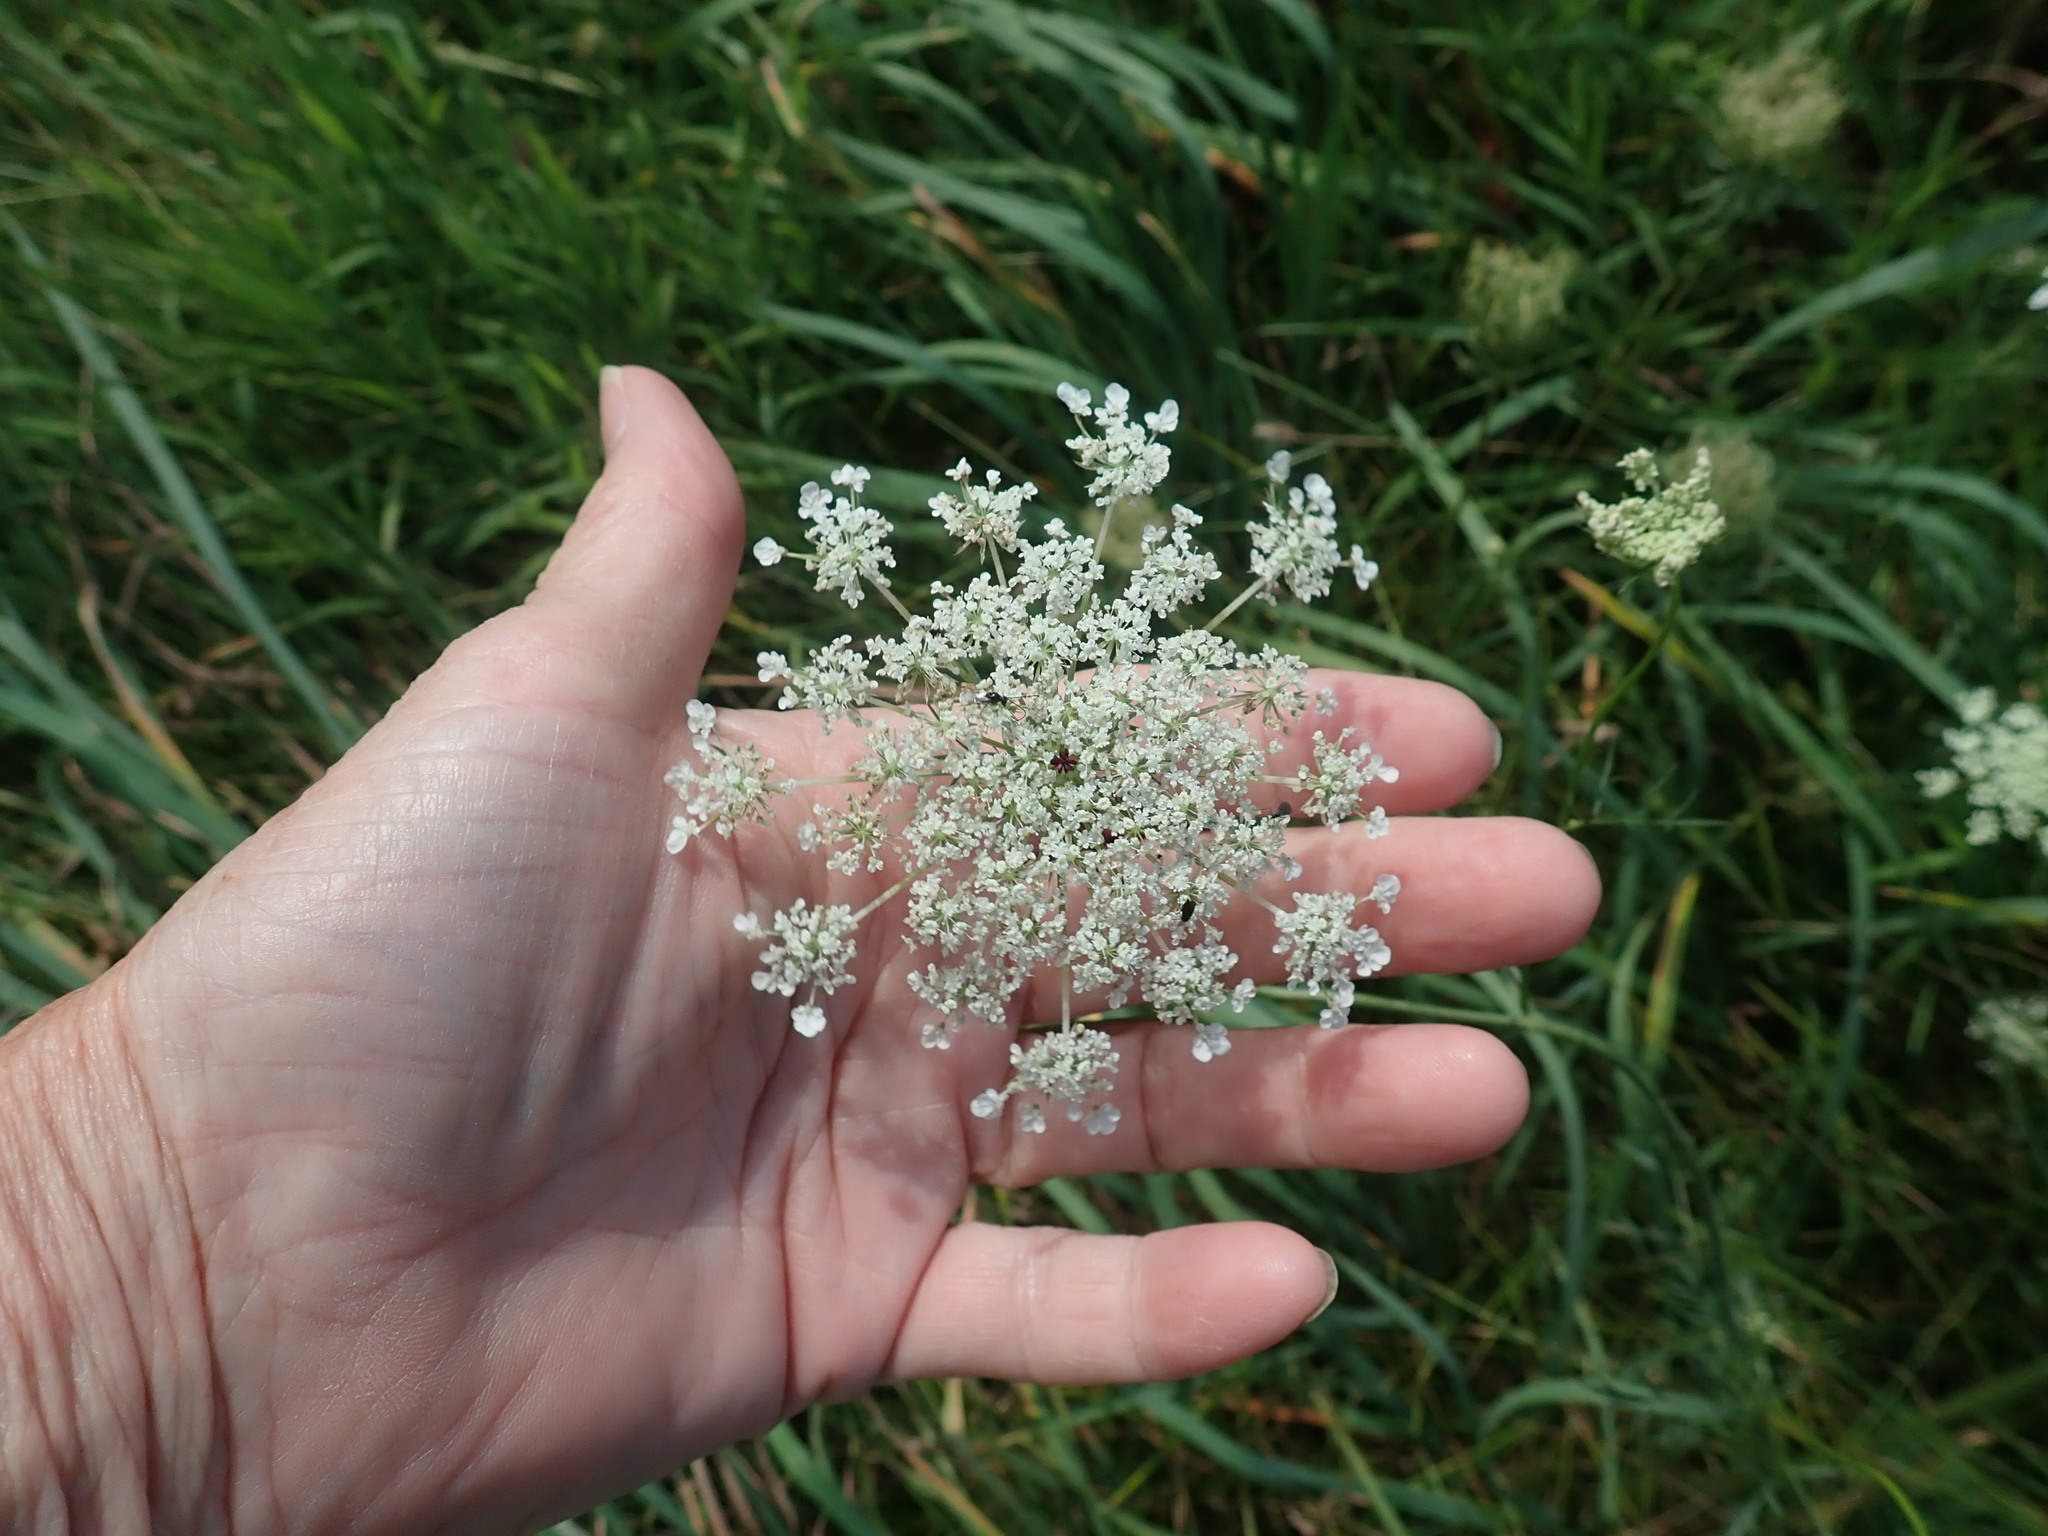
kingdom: Plantae
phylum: Tracheophyta
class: Magnoliopsida
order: Apiales
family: Apiaceae
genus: Daucus
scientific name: Daucus carota
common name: Wild carrot
